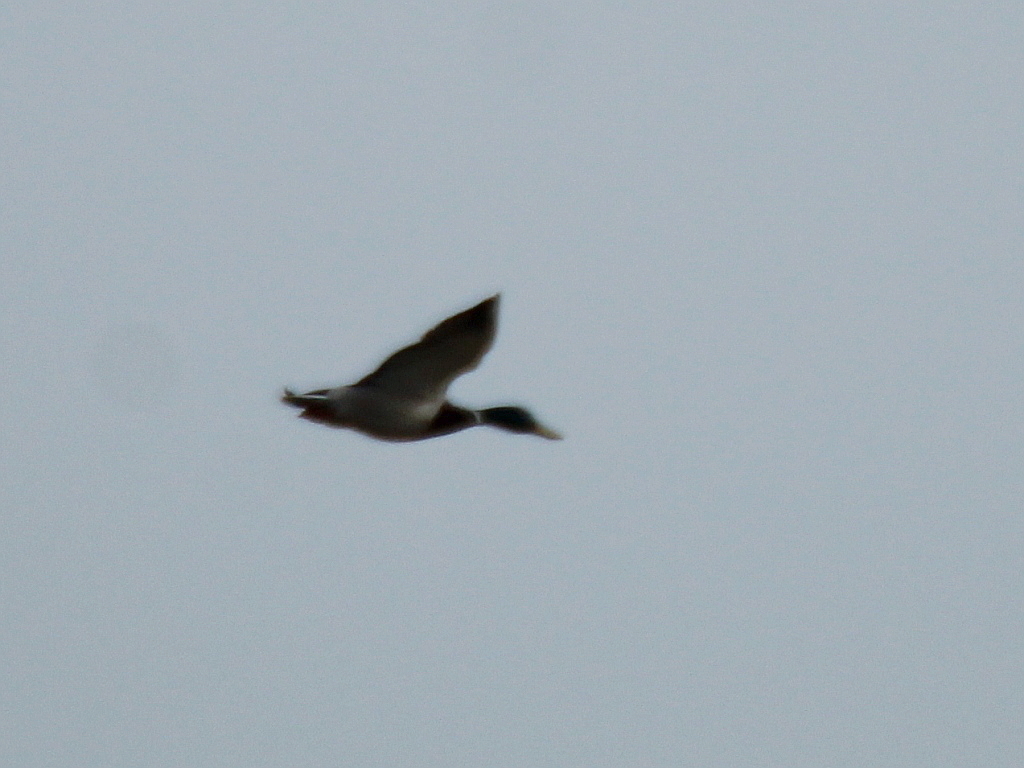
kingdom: Animalia
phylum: Chordata
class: Aves
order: Anseriformes
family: Anatidae
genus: Anas
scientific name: Anas platyrhynchos
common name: Mallard
